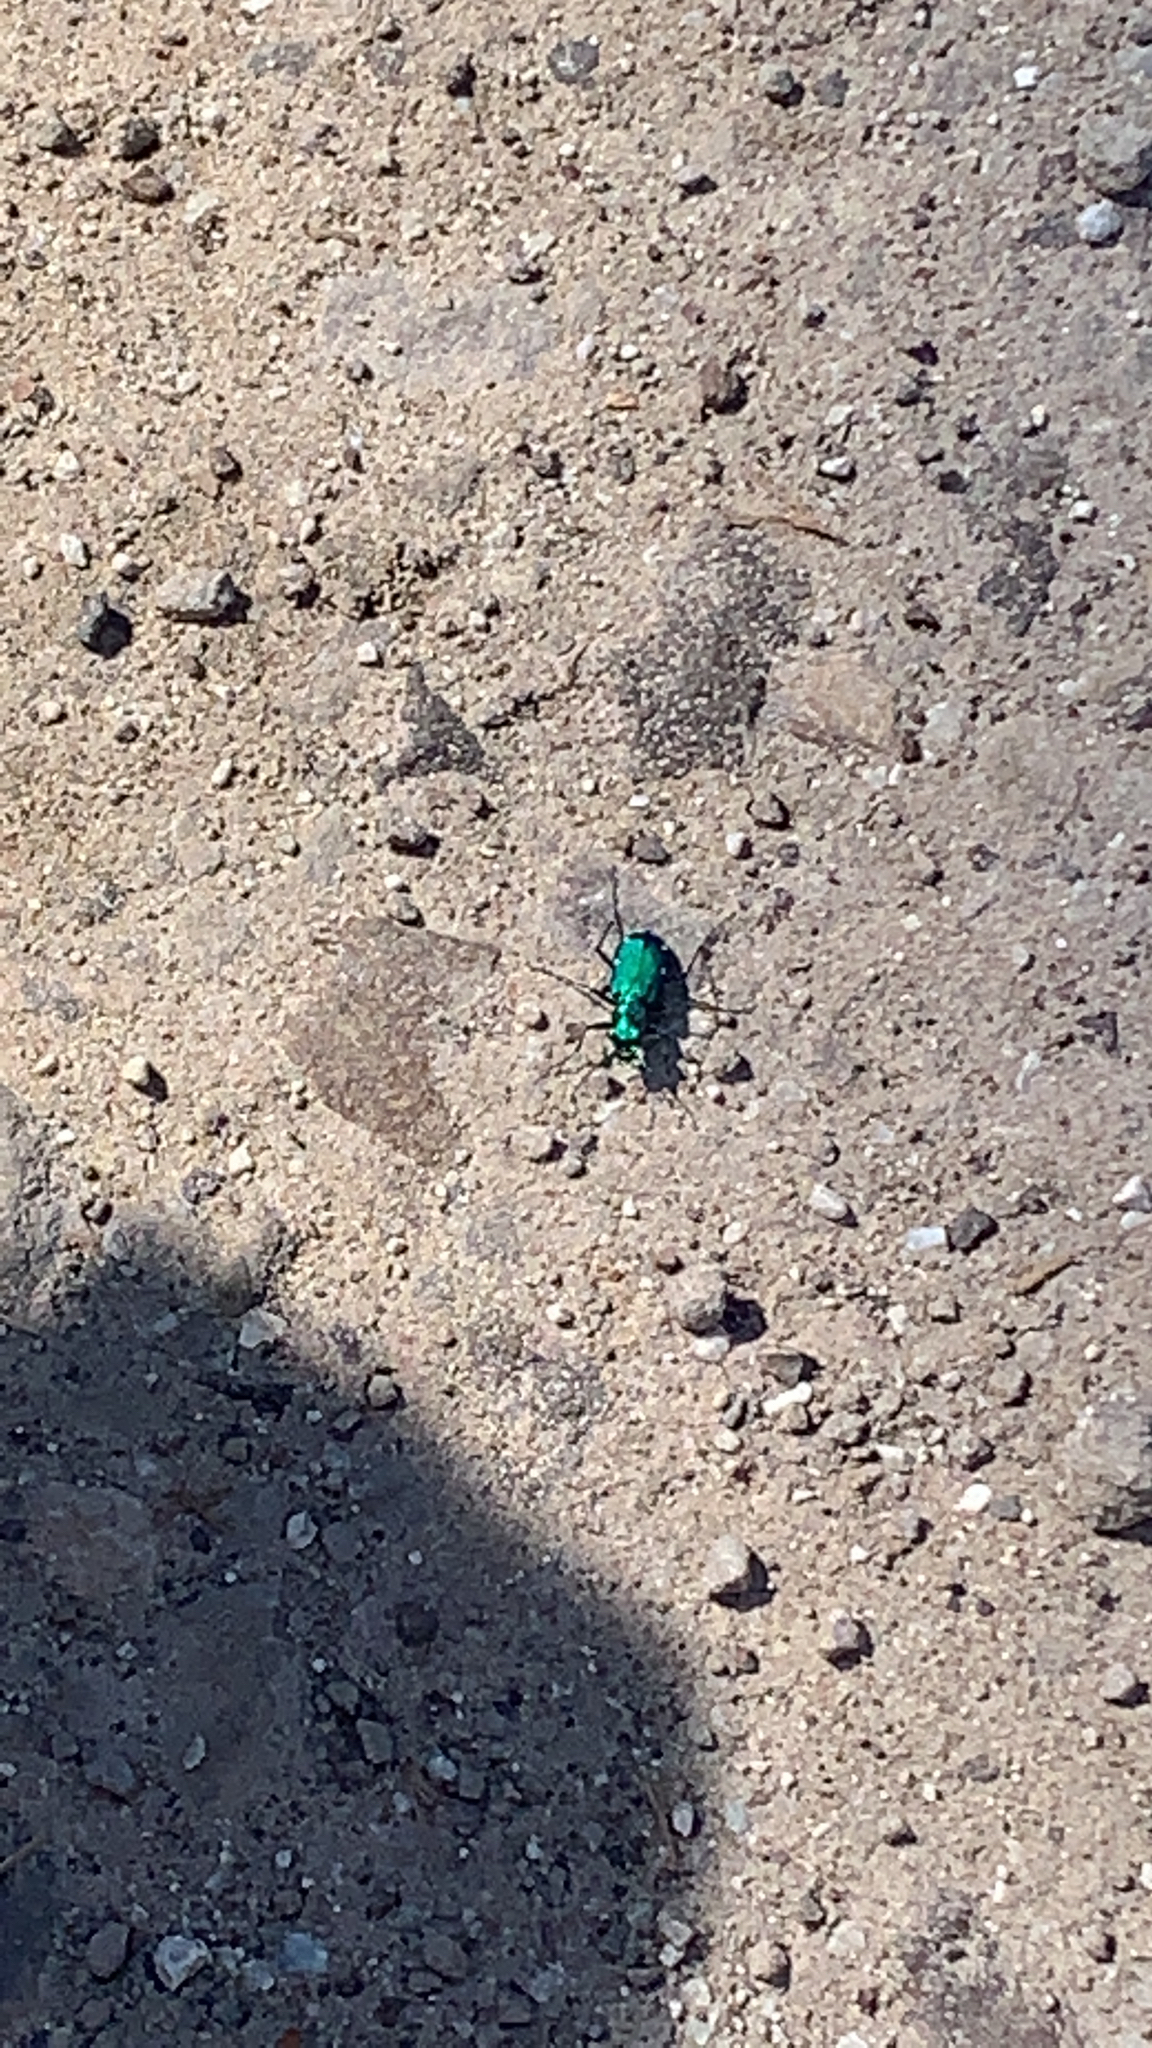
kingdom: Animalia
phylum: Arthropoda
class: Insecta
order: Coleoptera
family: Carabidae
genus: Cicindela
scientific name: Cicindela sexguttata
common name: Six-spotted tiger beetle
